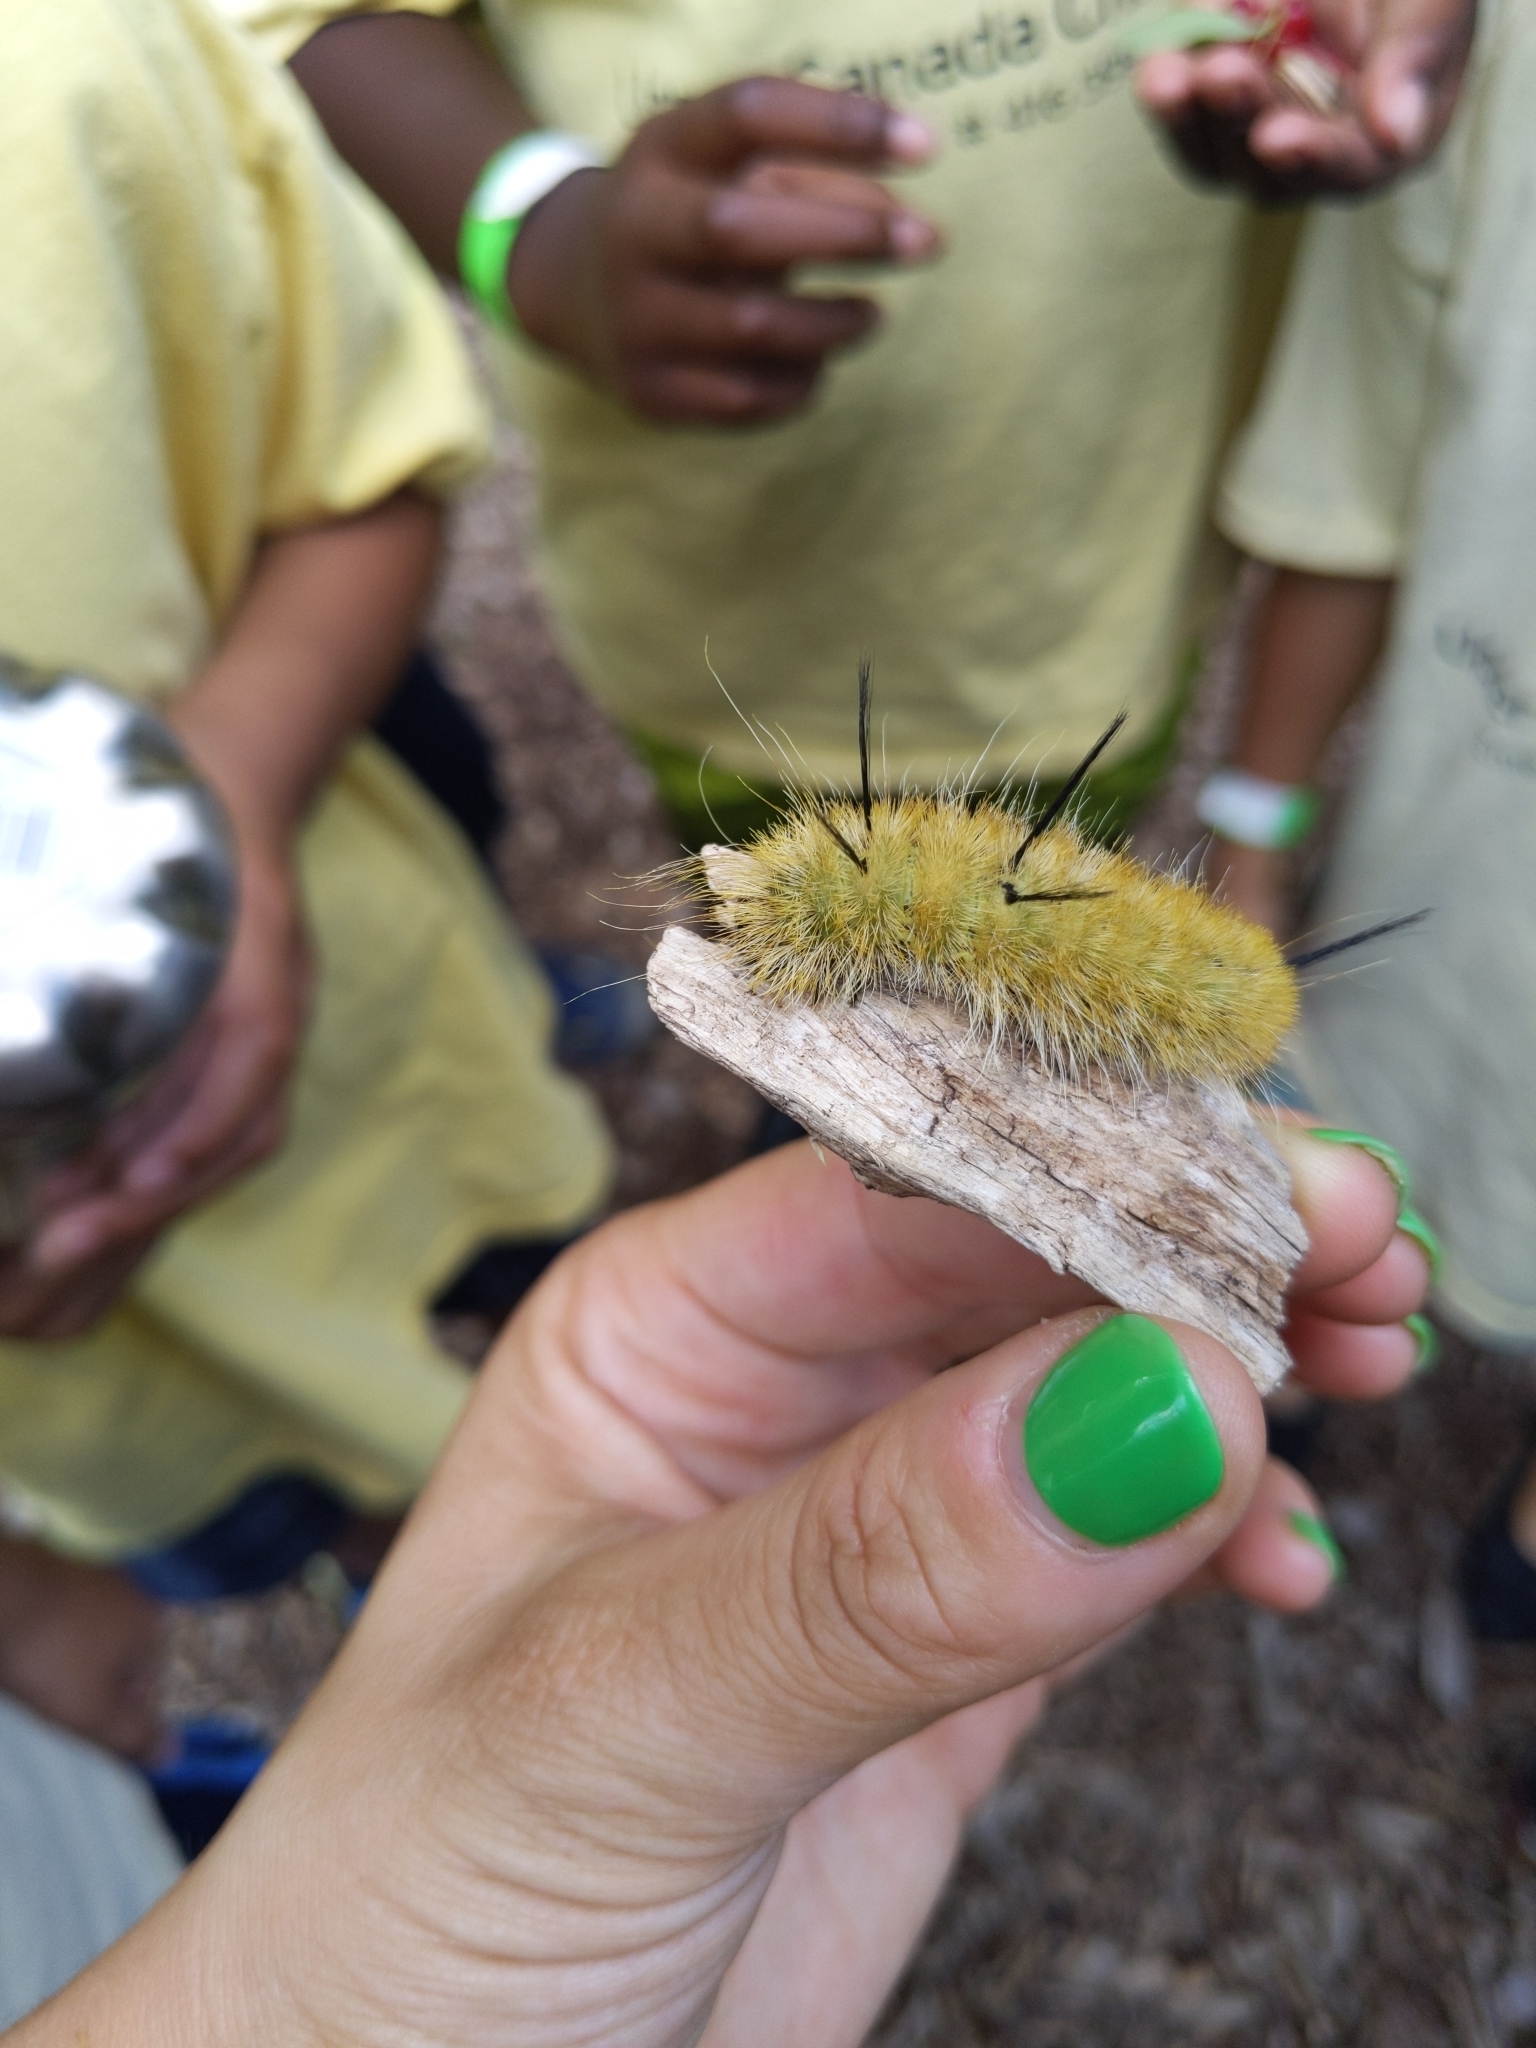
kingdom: Animalia
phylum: Arthropoda
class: Insecta
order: Lepidoptera
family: Noctuidae
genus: Acronicta
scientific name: Acronicta americana
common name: American dagger
